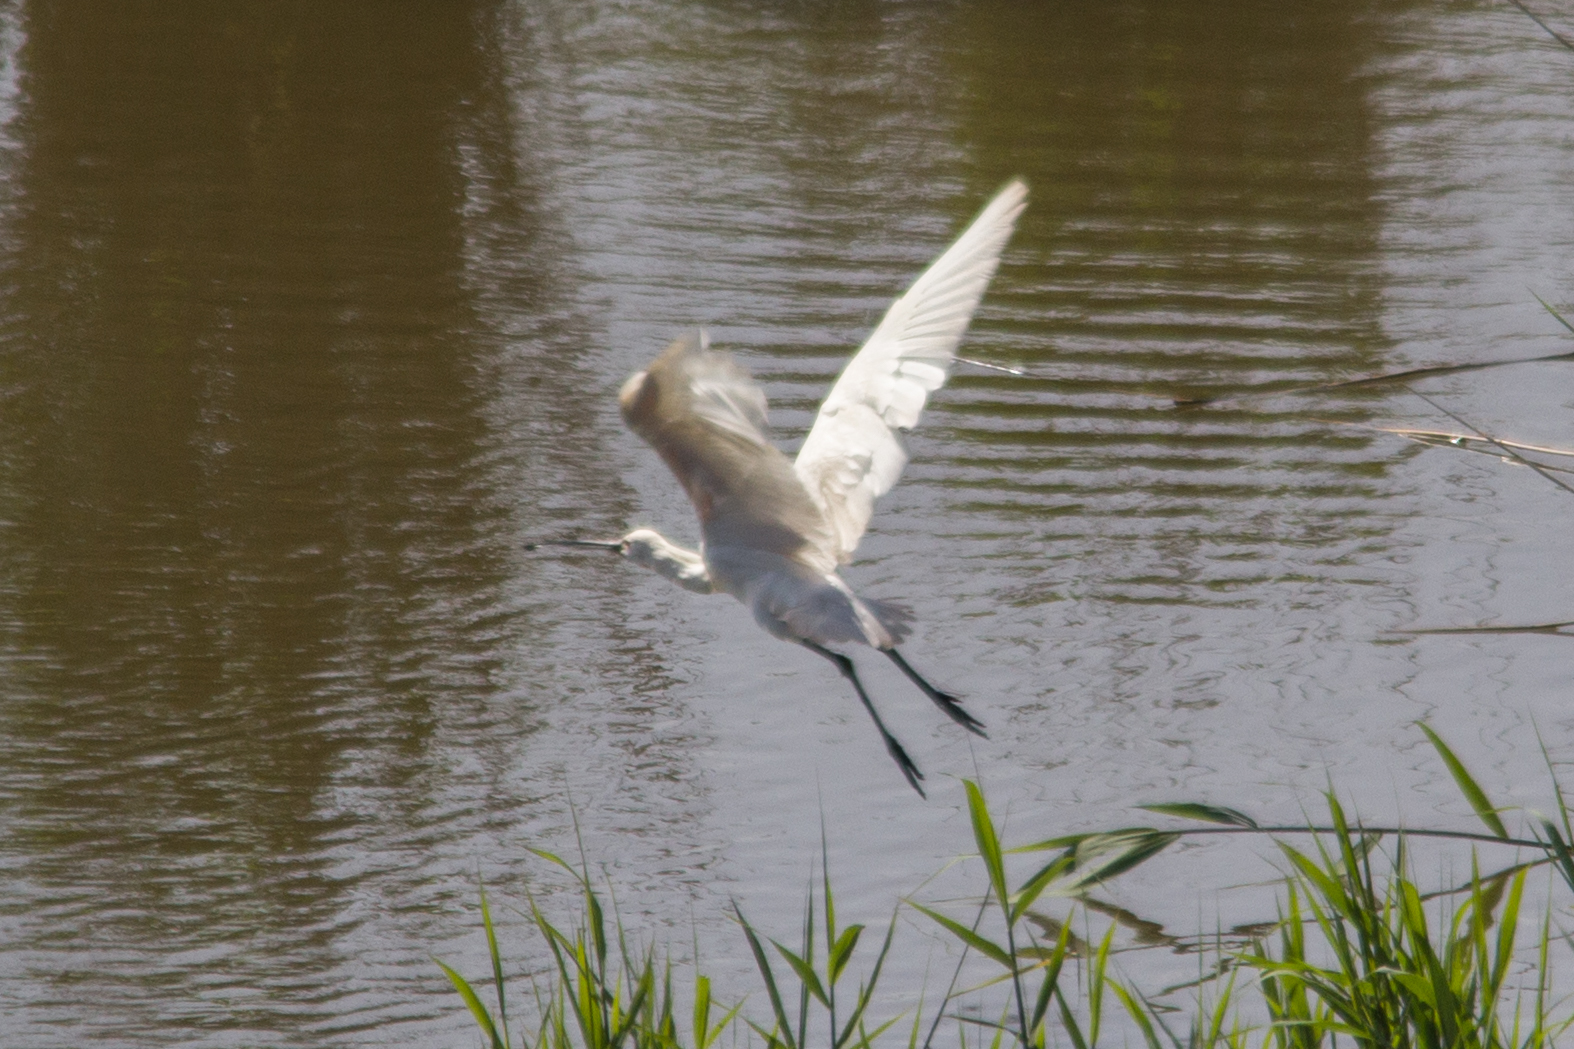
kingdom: Animalia
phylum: Chordata
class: Aves
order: Pelecaniformes
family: Ardeidae
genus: Egretta
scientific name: Egretta garzetta
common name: Little egret
